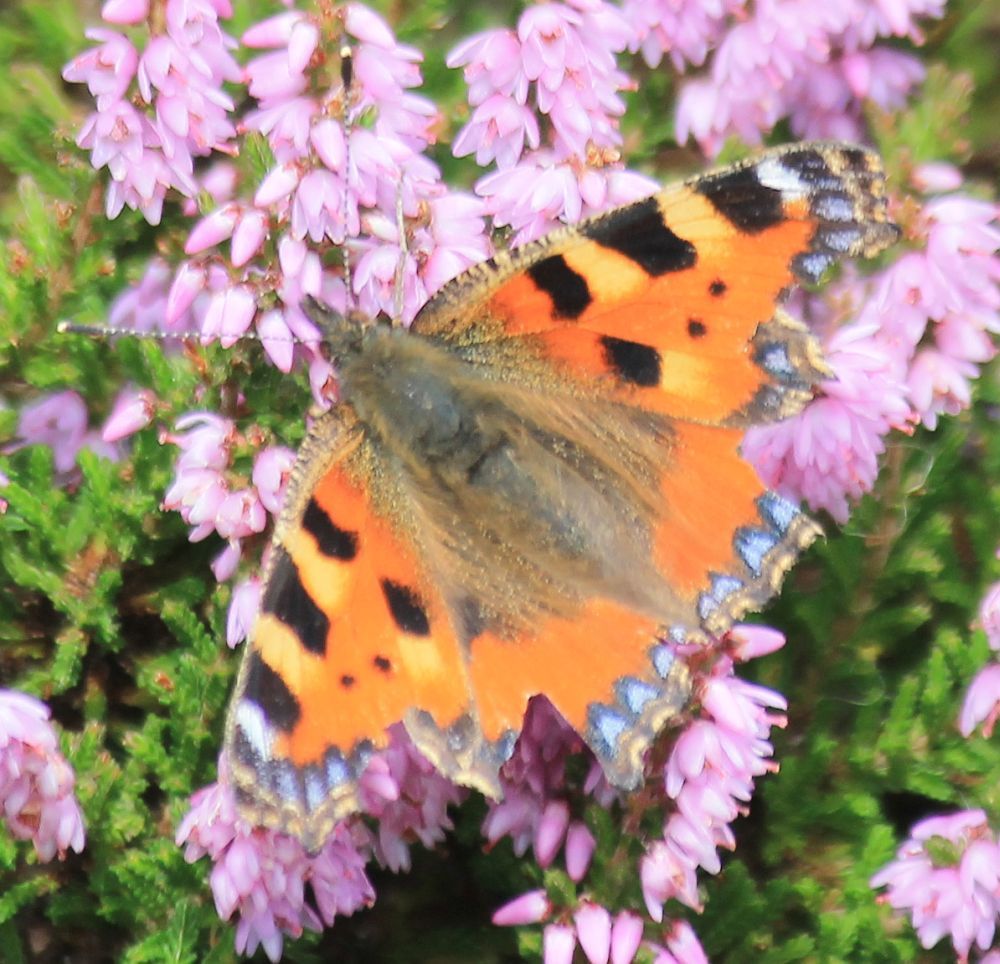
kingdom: Animalia
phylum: Arthropoda
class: Insecta
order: Lepidoptera
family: Nymphalidae
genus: Aglais
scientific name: Aglais urticae
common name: Small tortoiseshell
